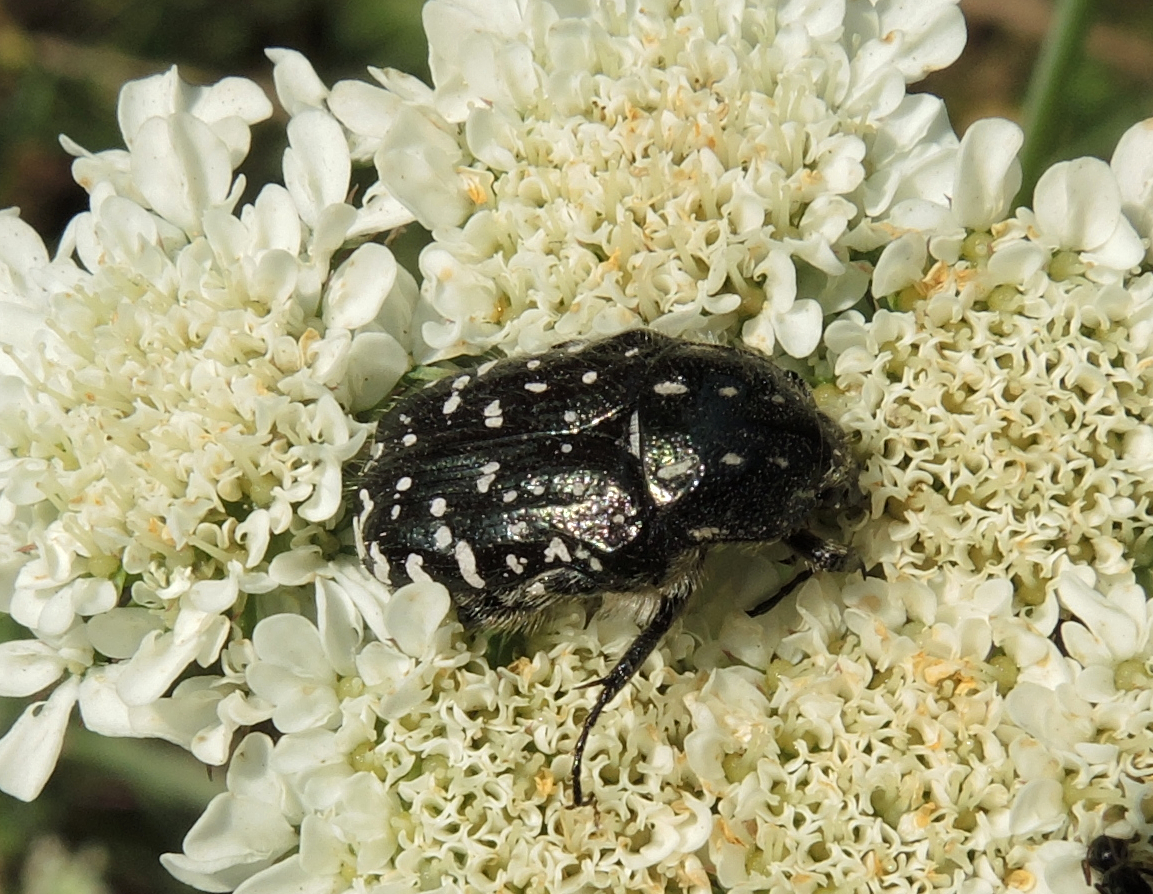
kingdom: Animalia
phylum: Arthropoda
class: Insecta
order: Coleoptera
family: Scarabaeidae
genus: Oxythyrea
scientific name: Oxythyrea funesta
